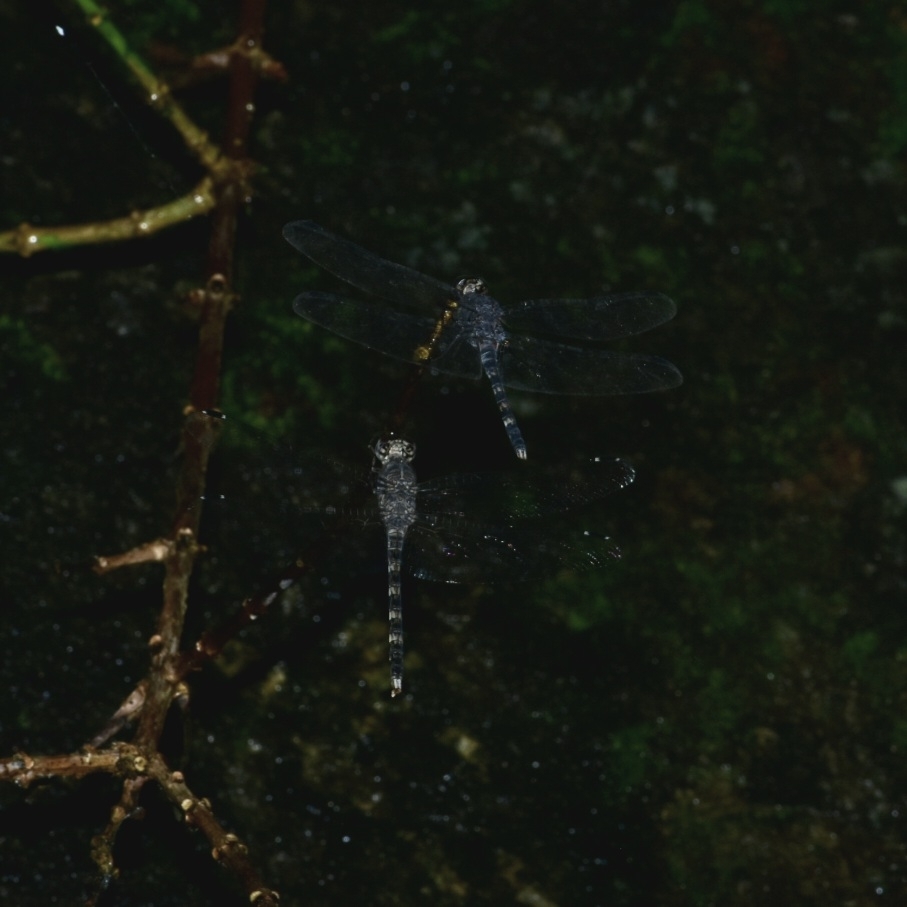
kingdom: Animalia
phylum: Arthropoda
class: Insecta
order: Odonata
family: Libellulidae
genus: Bradinopyga
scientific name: Bradinopyga geminata
